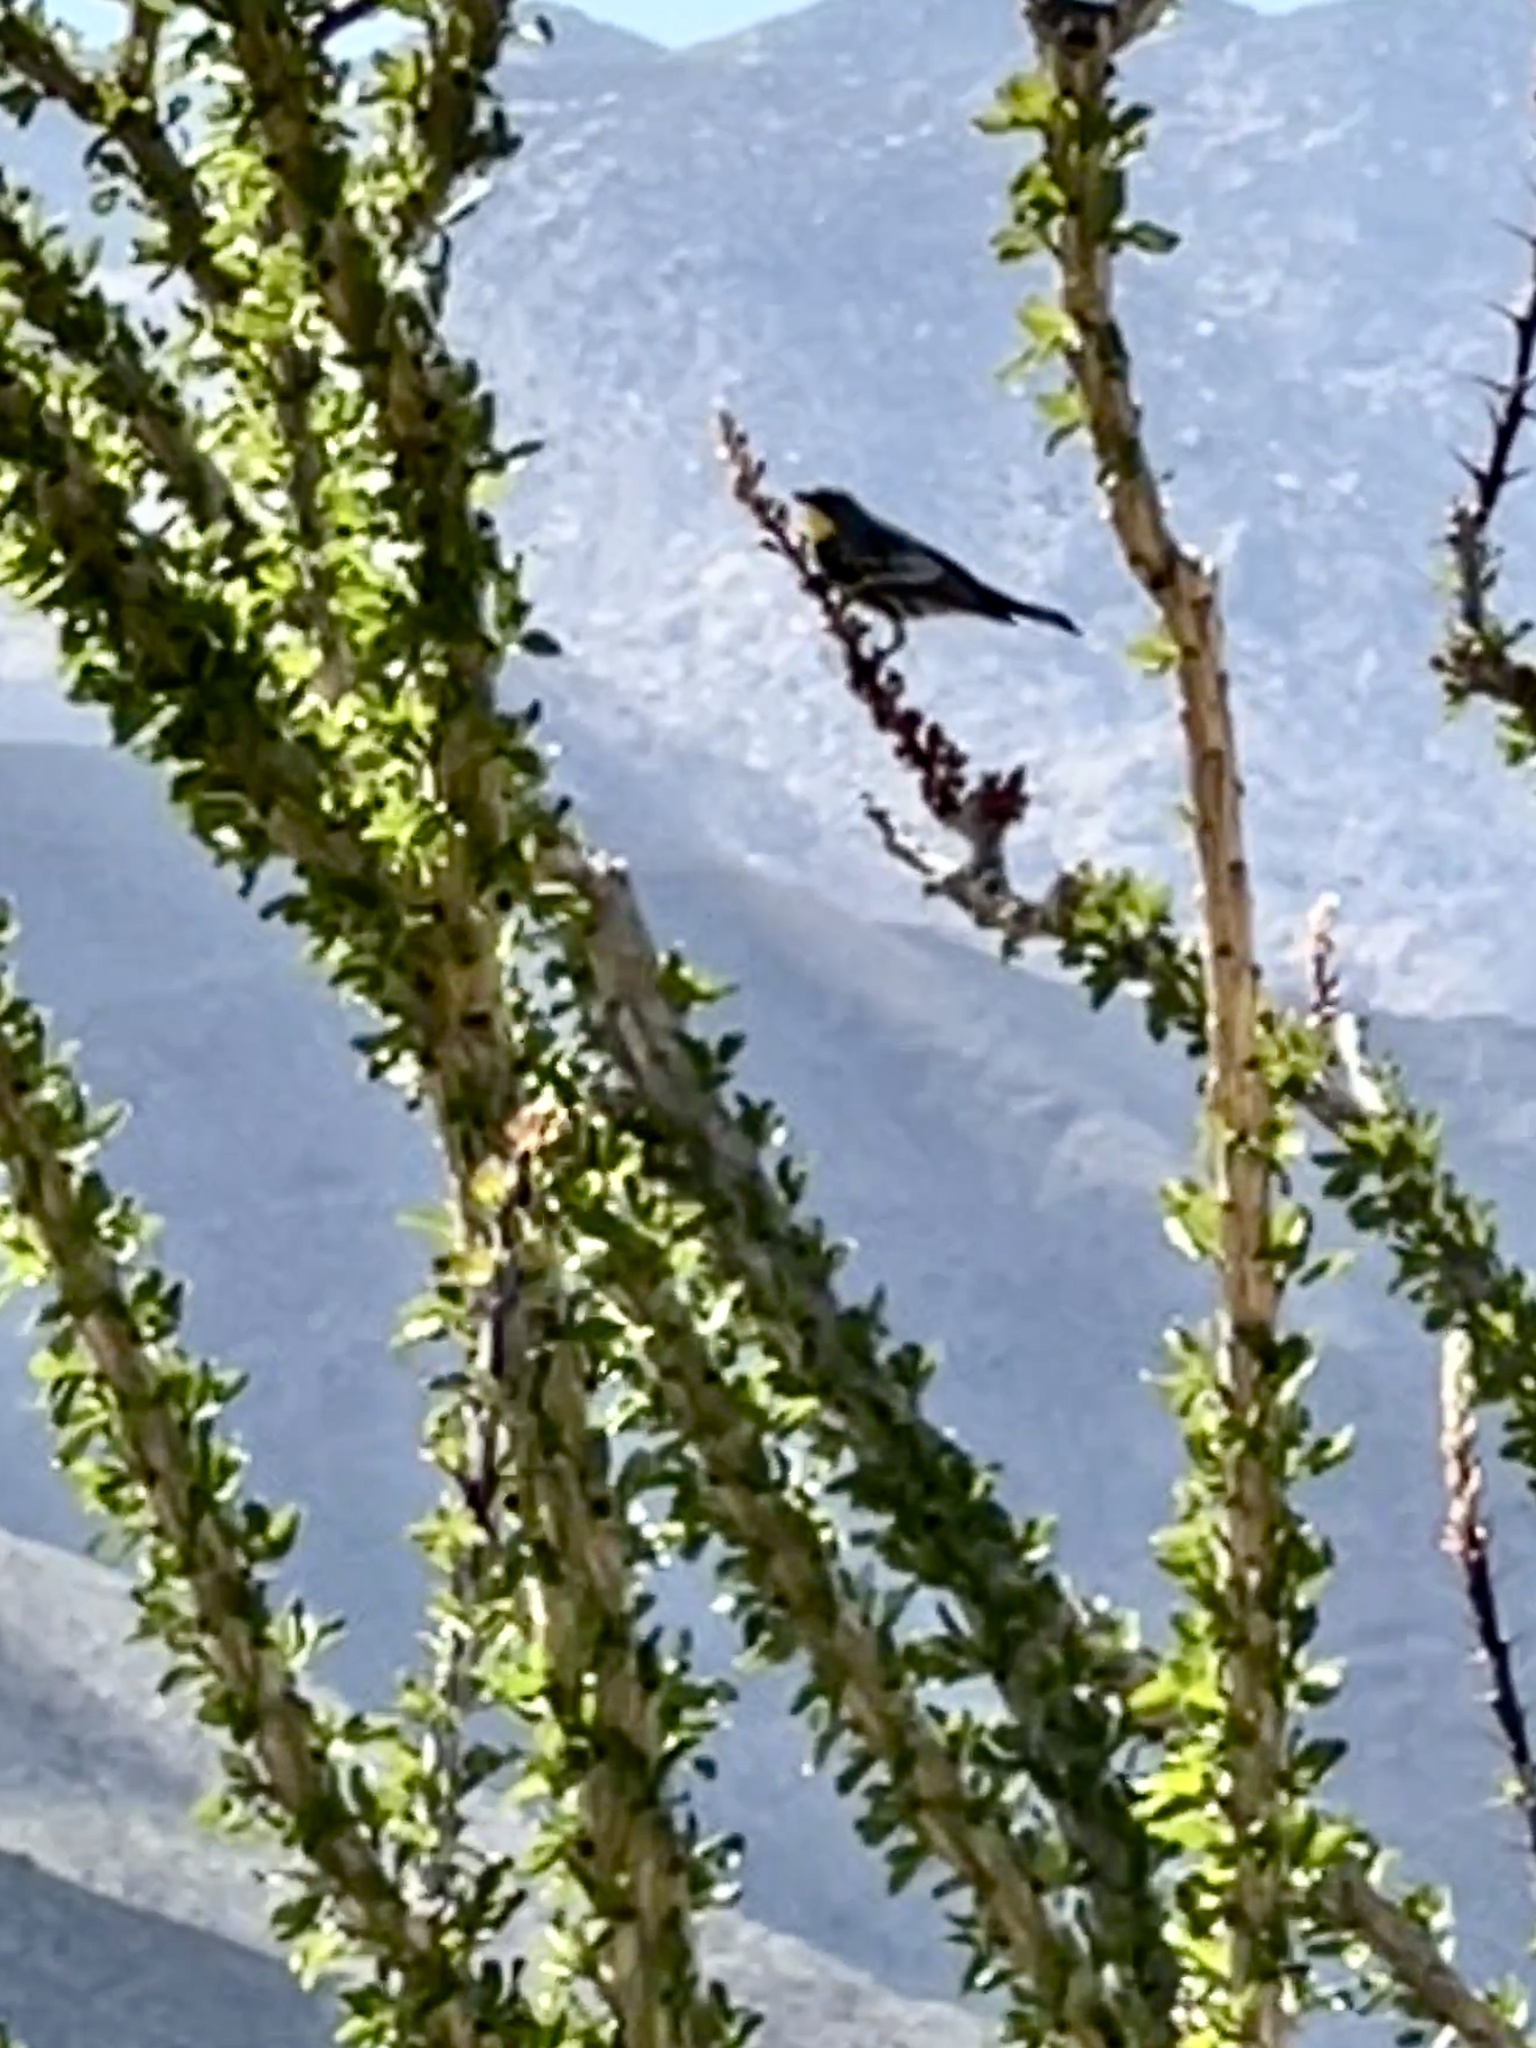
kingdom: Animalia
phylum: Chordata
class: Aves
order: Passeriformes
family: Parulidae
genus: Setophaga
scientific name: Setophaga coronata
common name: Myrtle warbler
